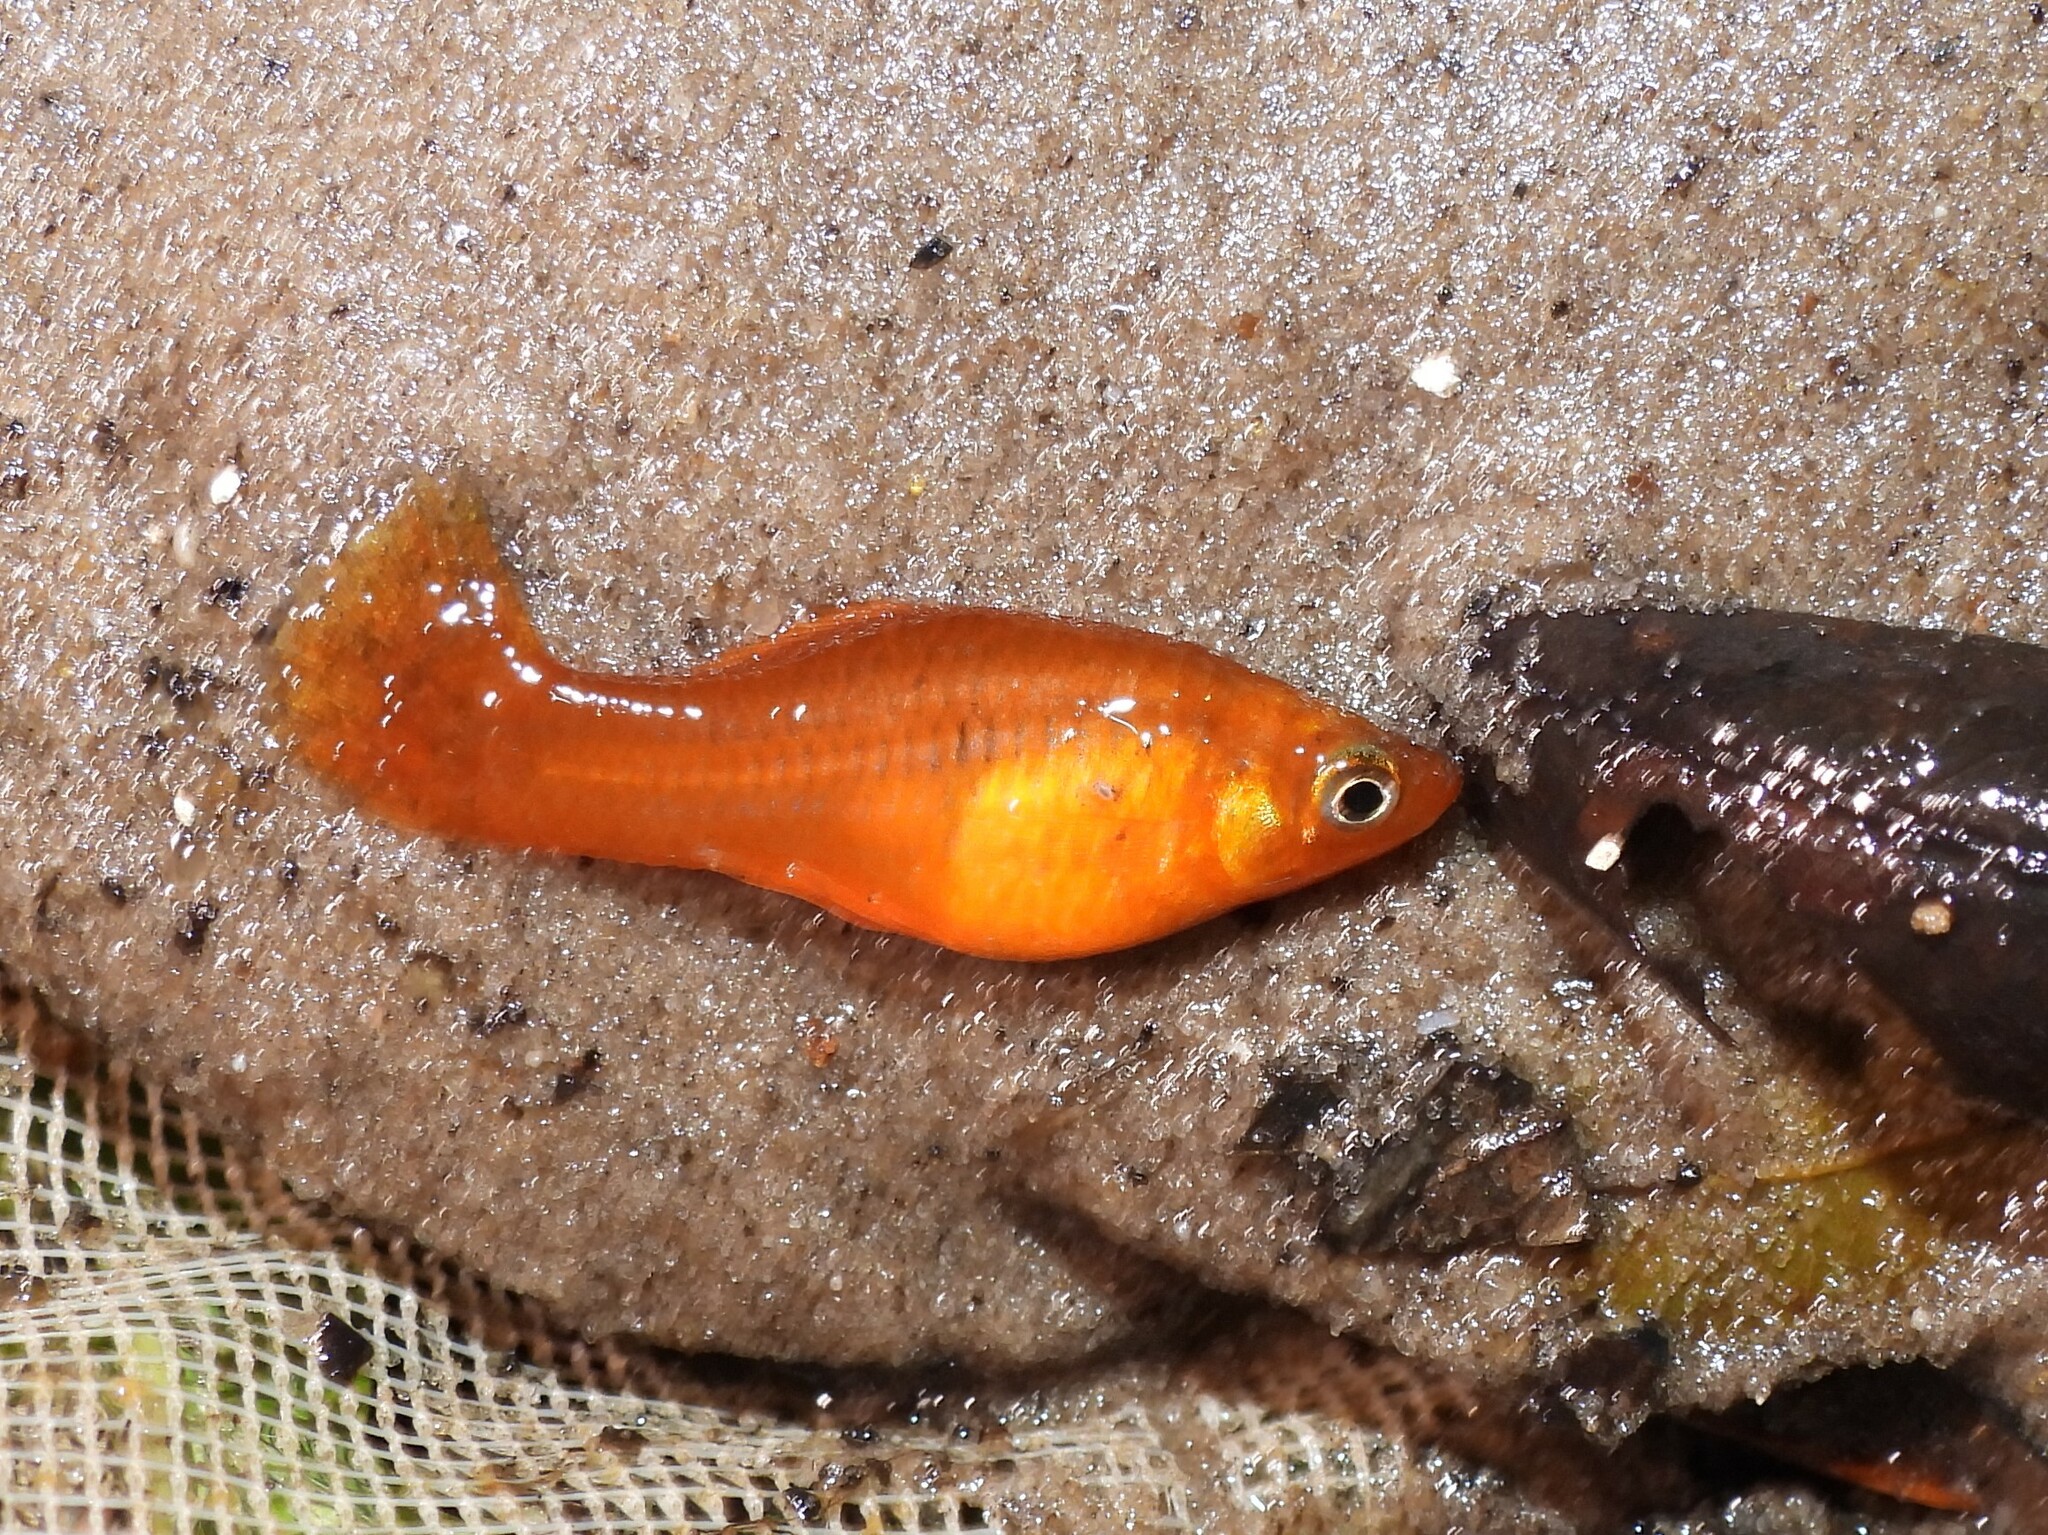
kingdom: Animalia
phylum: Chordata
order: Cyprinodontiformes
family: Poeciliidae
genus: Xiphophorus
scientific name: Xiphophorus variatus
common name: Variable platyfish
